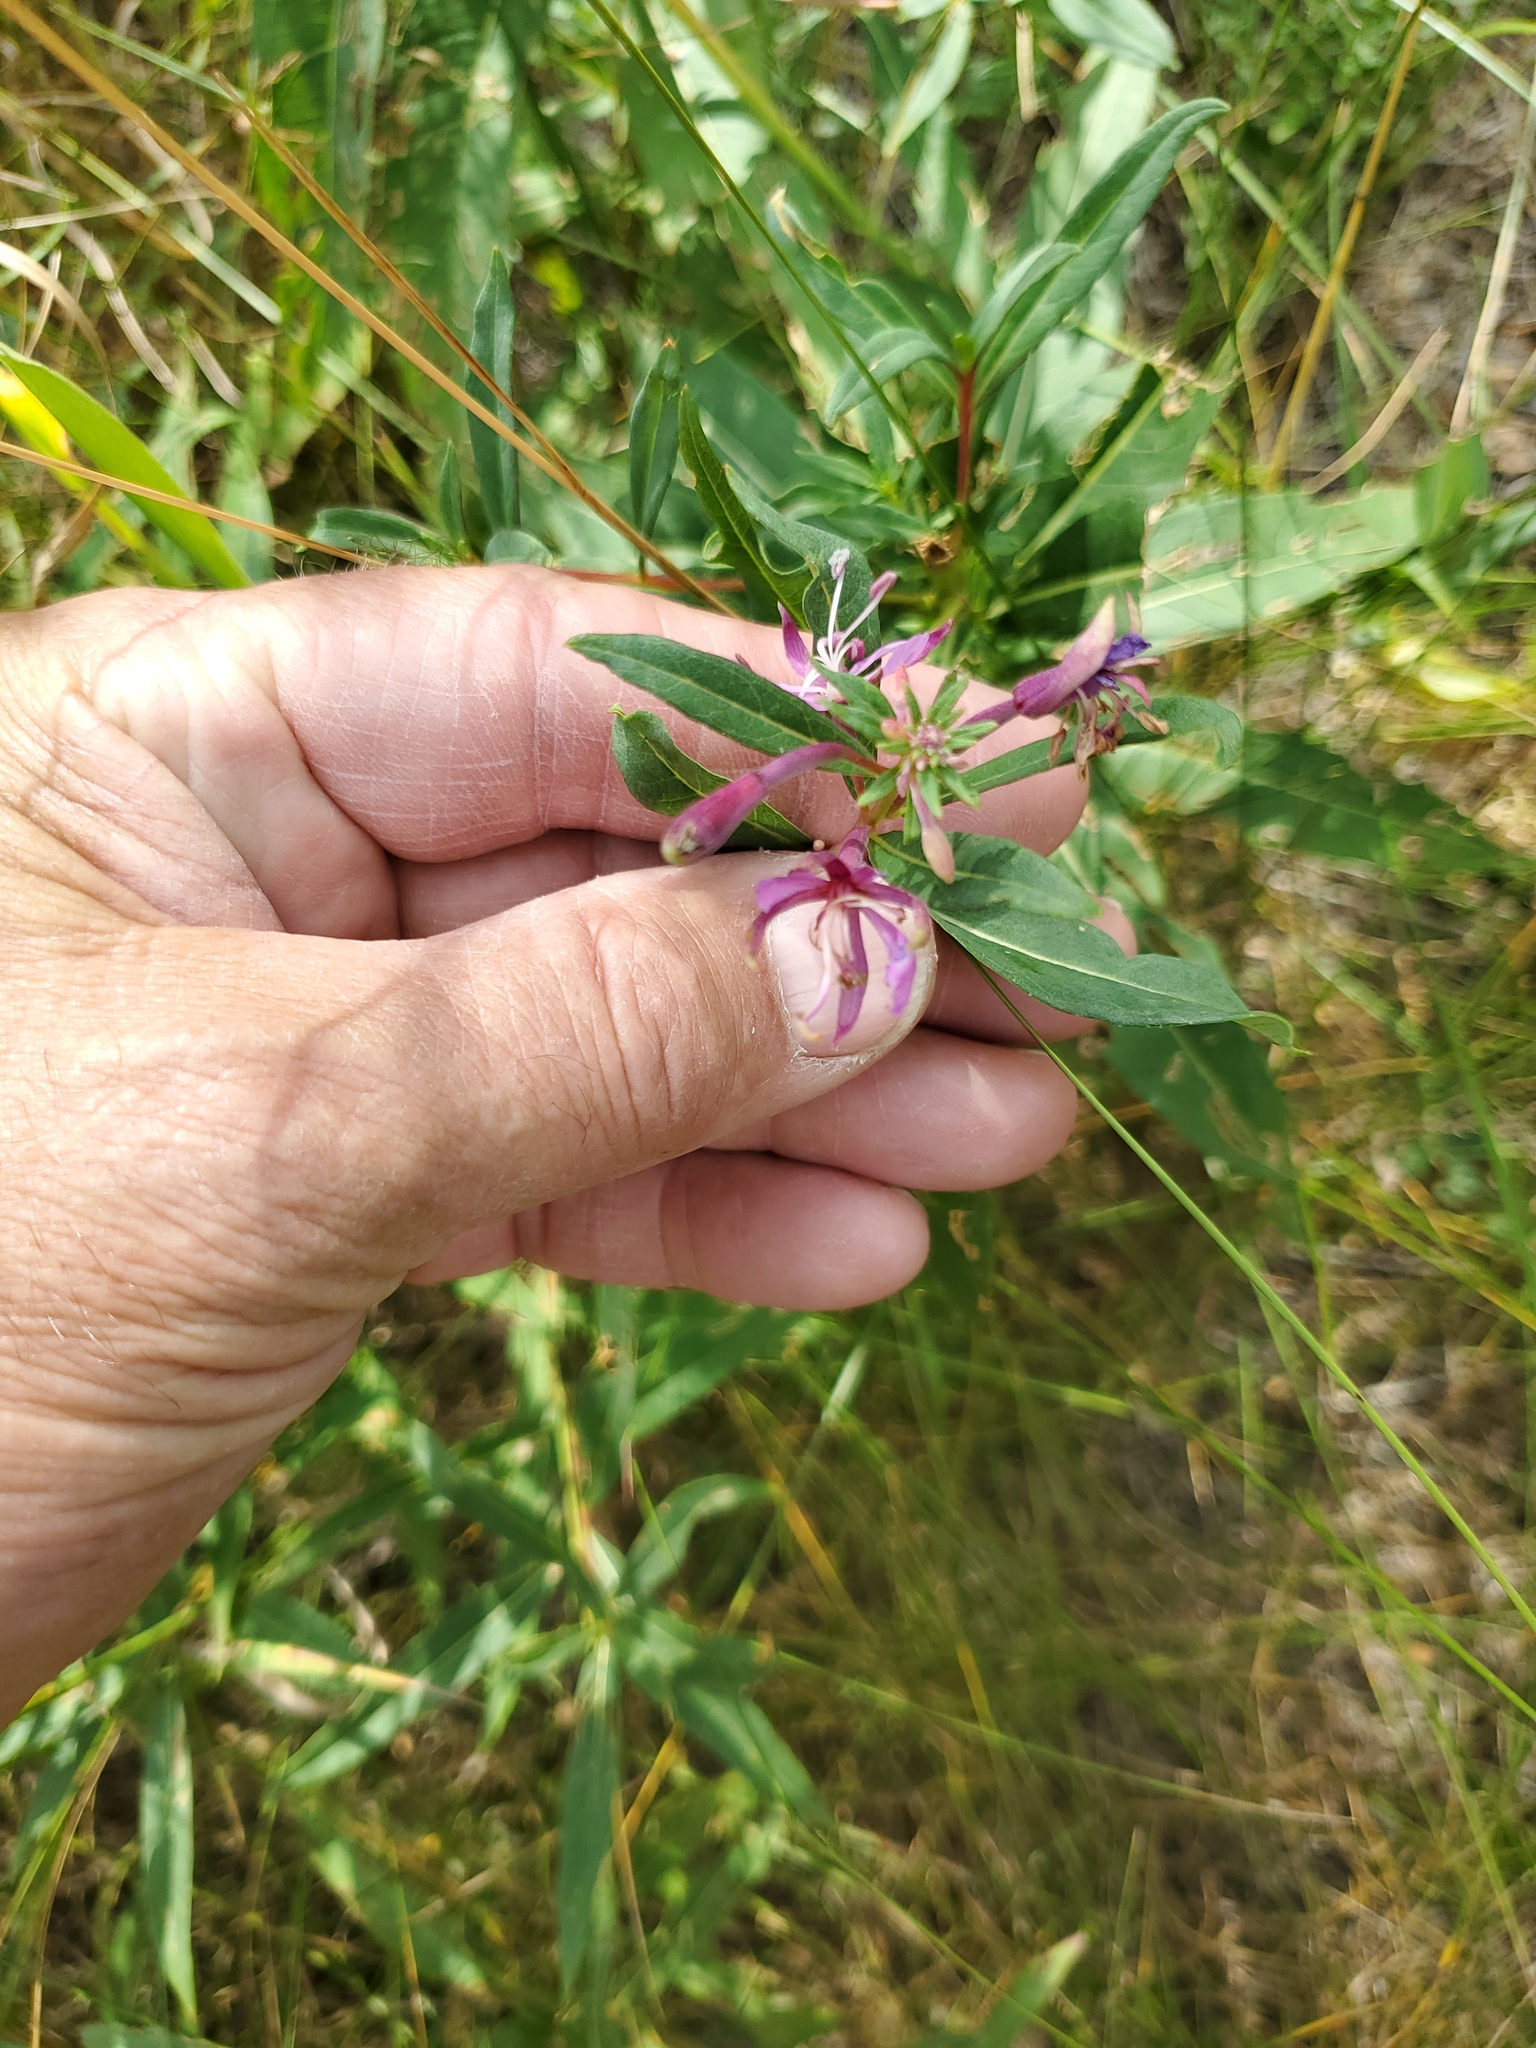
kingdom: Plantae
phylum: Tracheophyta
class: Magnoliopsida
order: Myrtales
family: Onagraceae
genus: Chamaenerion
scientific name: Chamaenerion angustifolium
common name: Fireweed
